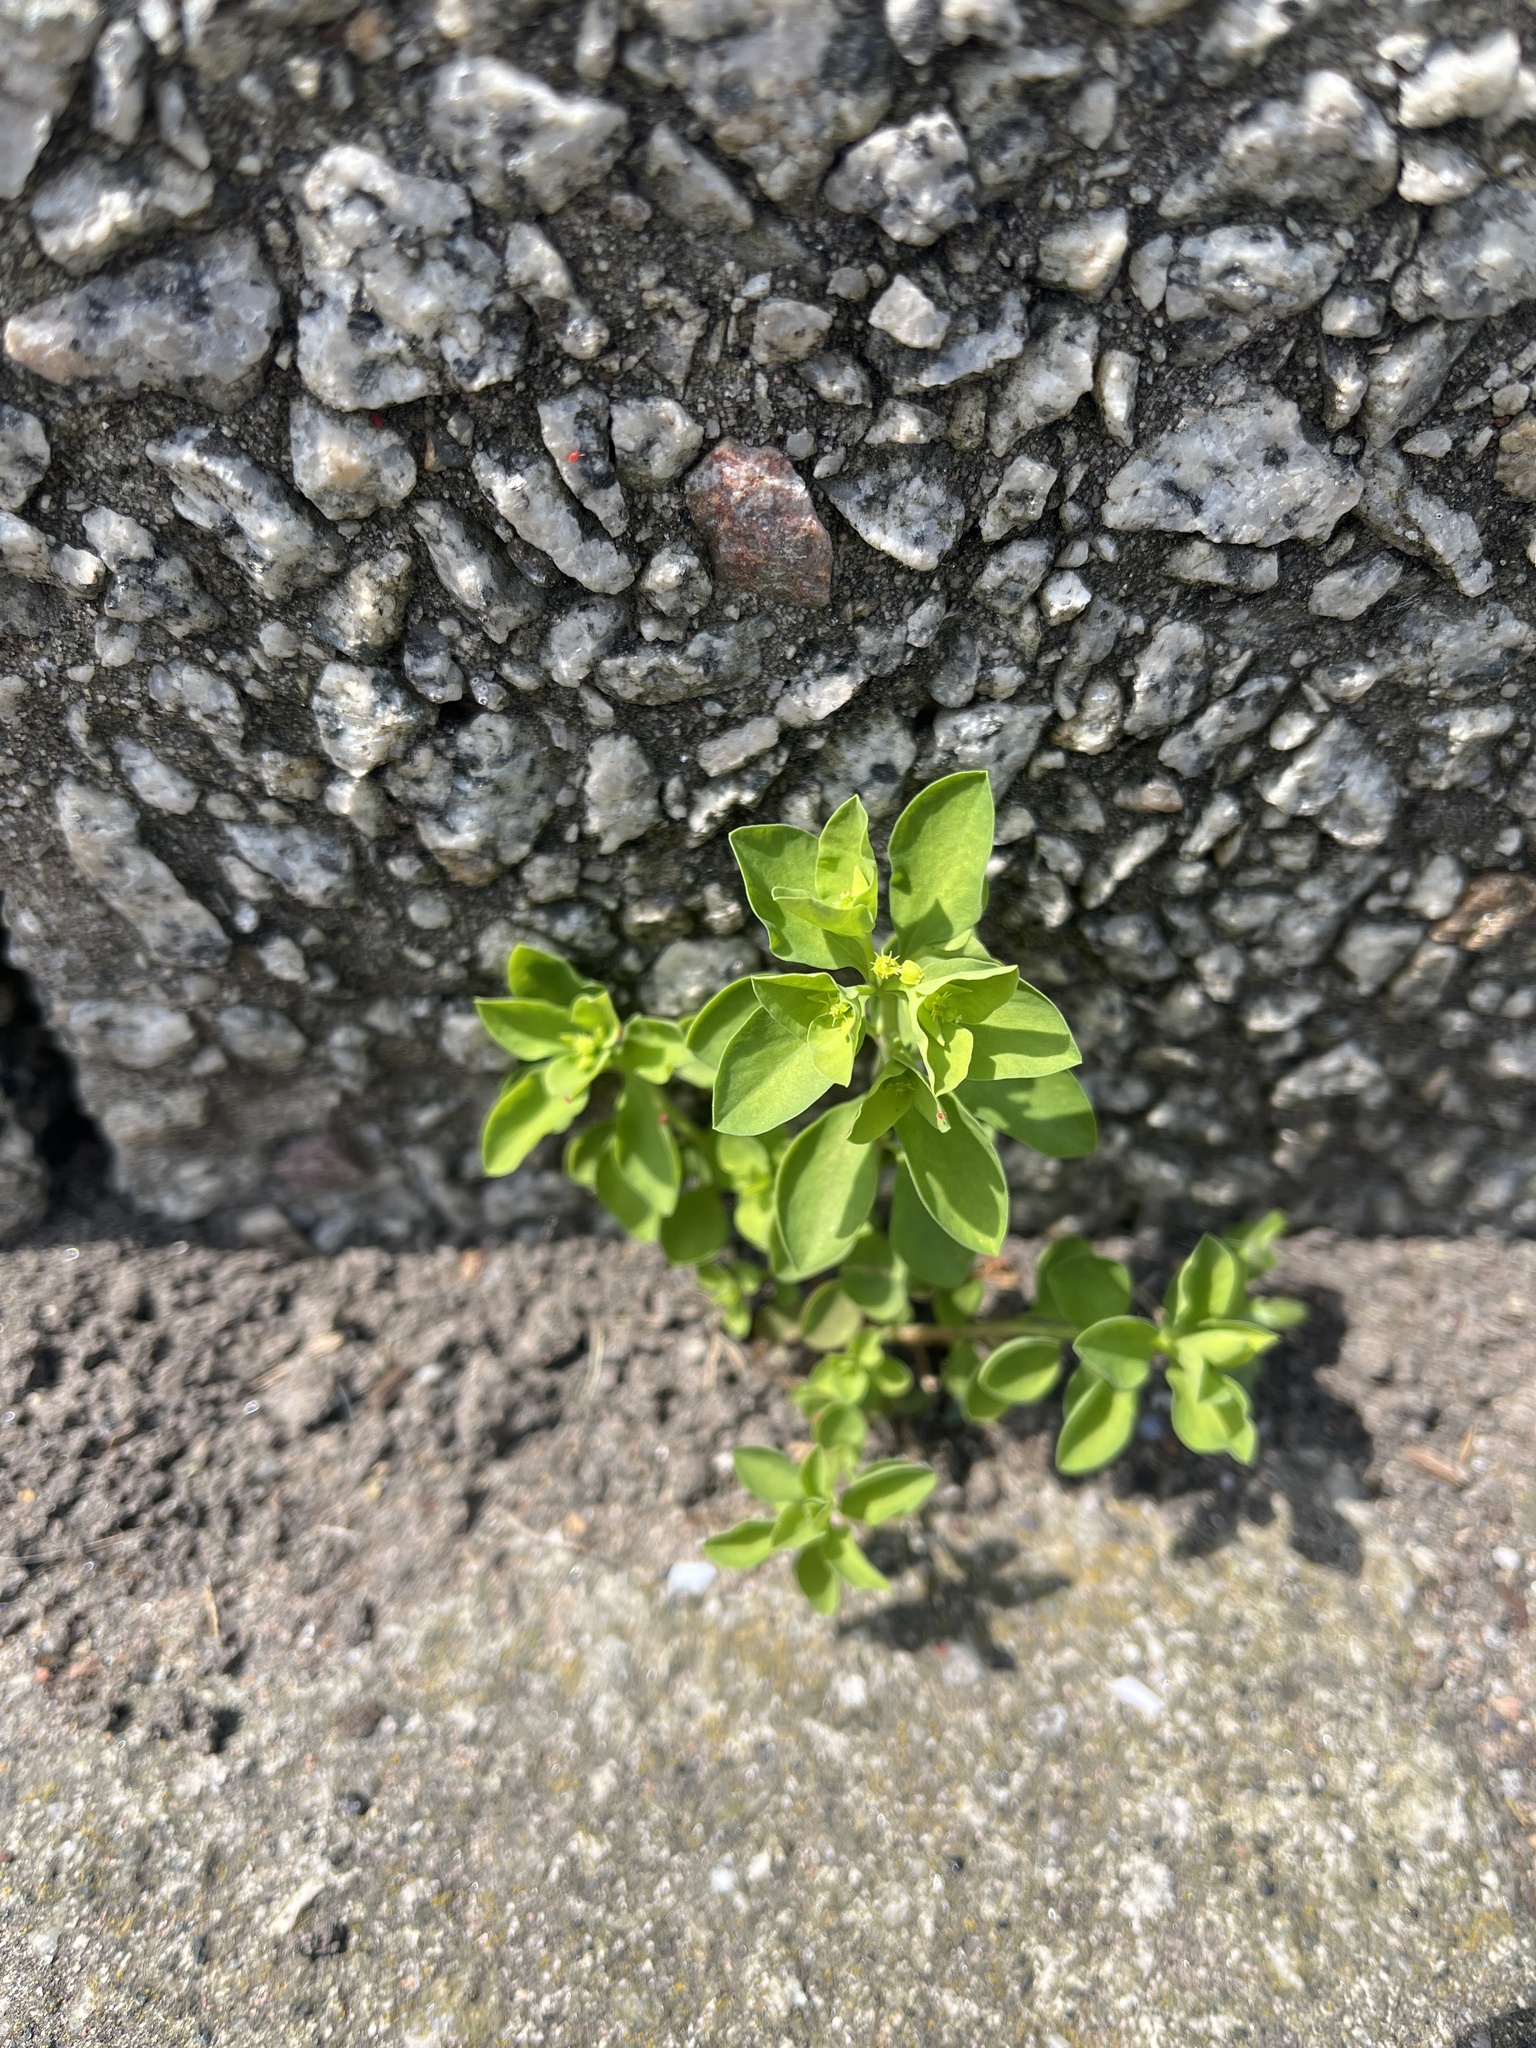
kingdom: Plantae
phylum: Tracheophyta
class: Magnoliopsida
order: Malpighiales
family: Euphorbiaceae
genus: Euphorbia
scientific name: Euphorbia peplus
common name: Petty spurge
